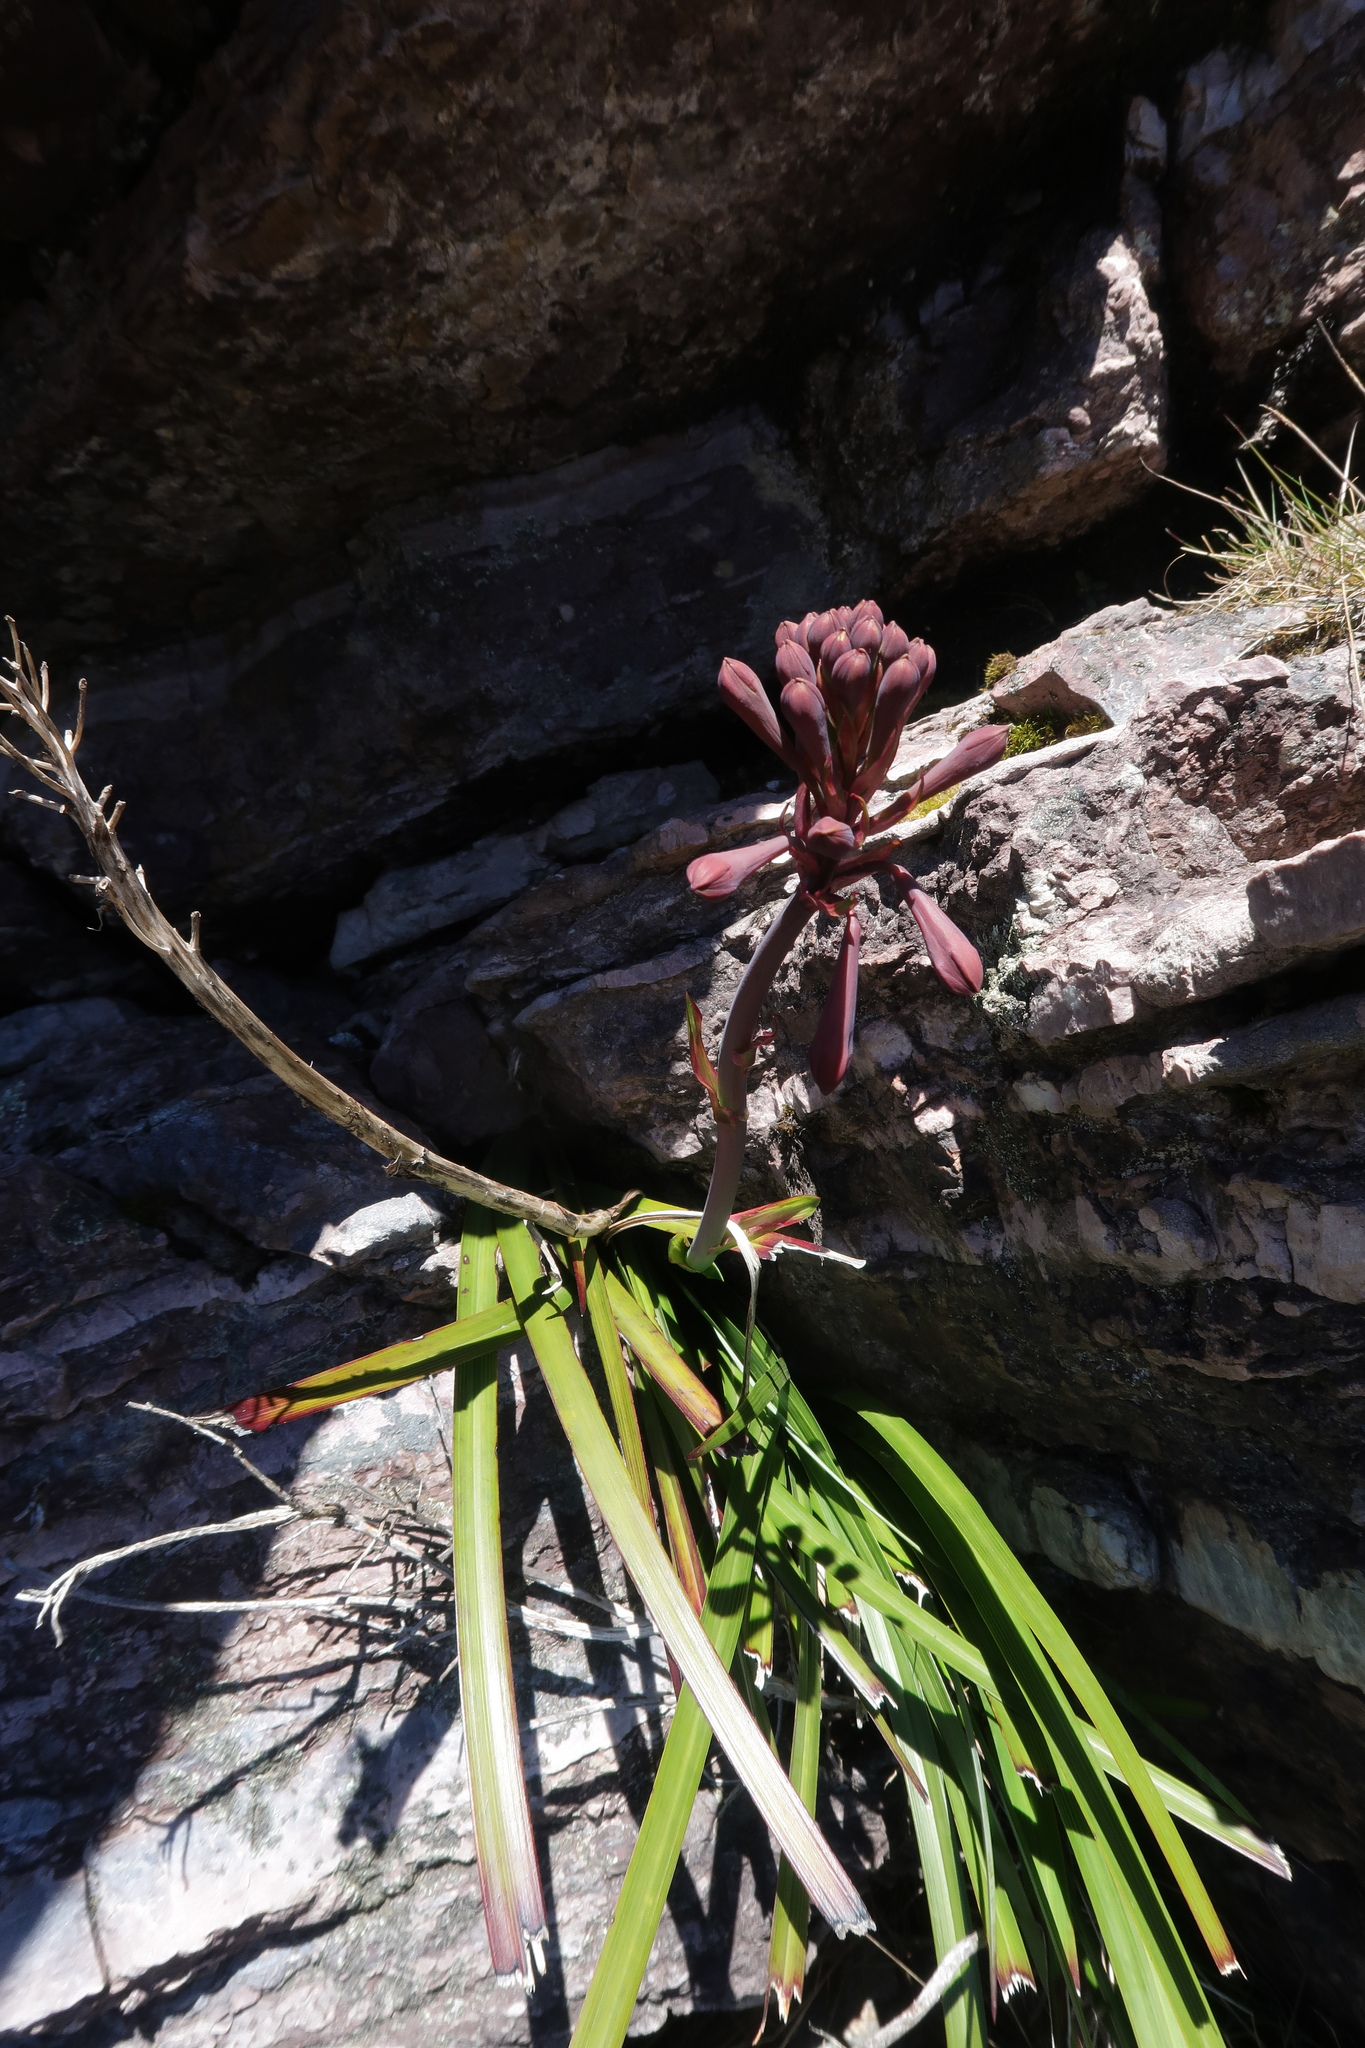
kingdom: Plantae
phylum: Tracheophyta
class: Liliopsida
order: Asparagales
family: Blandfordiaceae
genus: Blandfordia
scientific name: Blandfordia punicea
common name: Tasmanian christmas-bell
